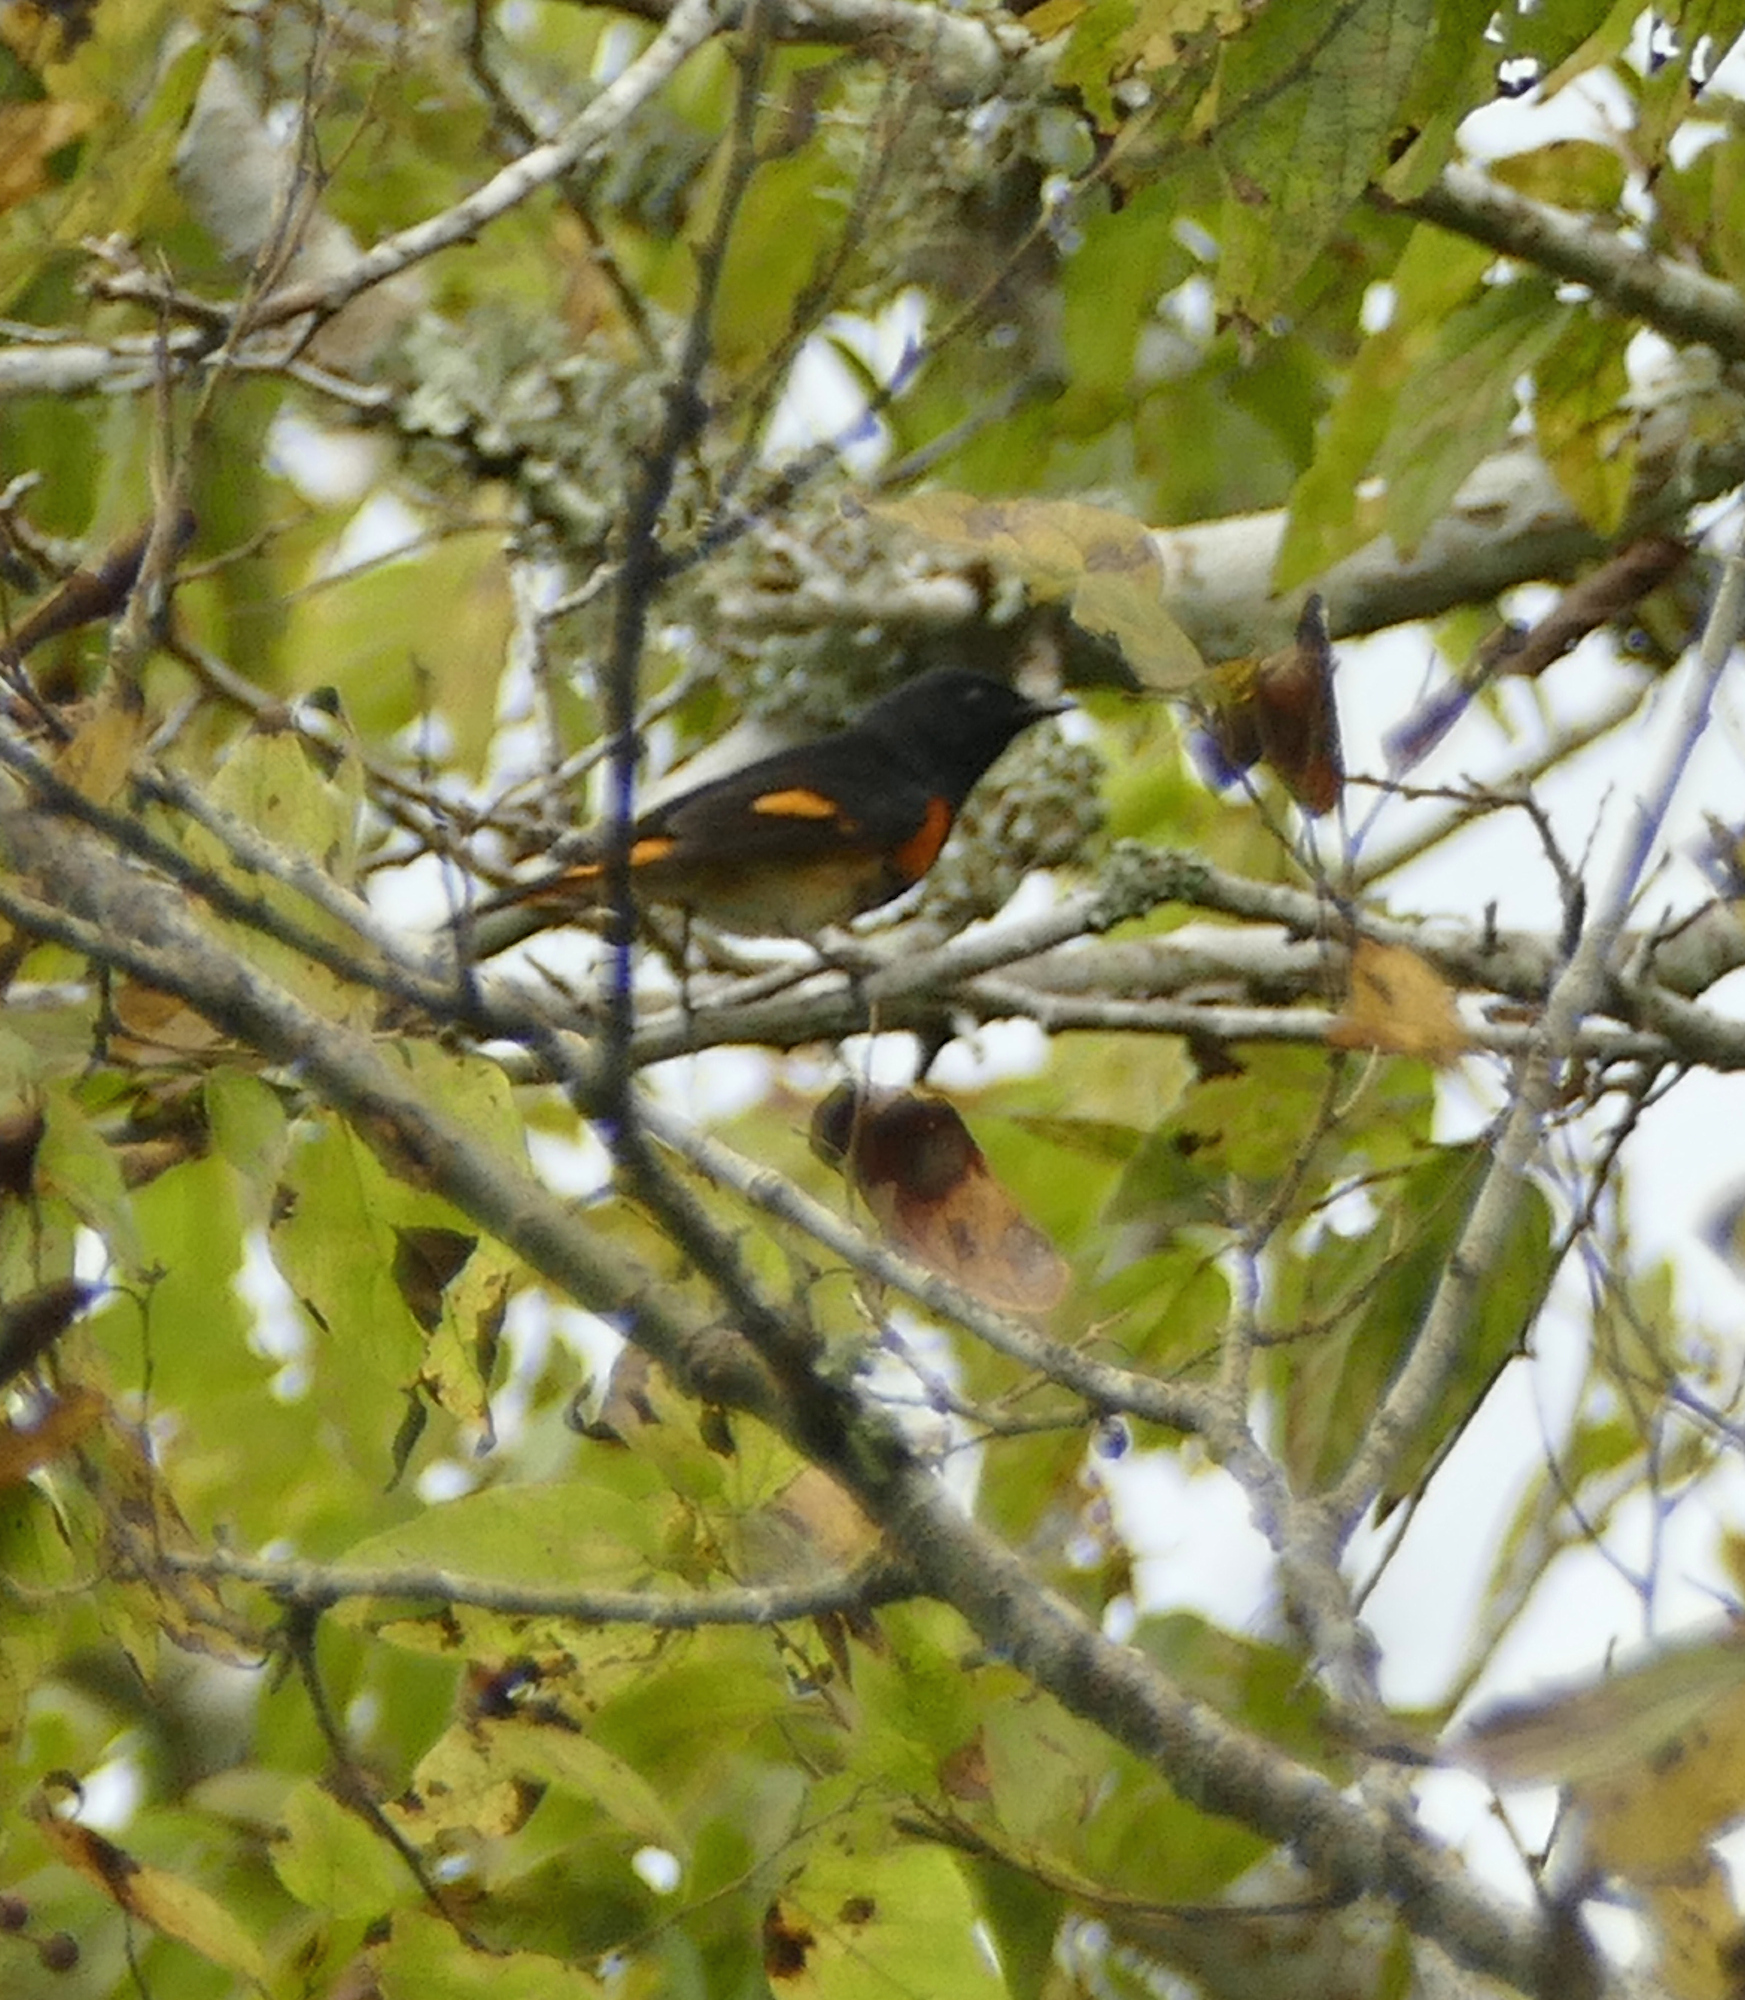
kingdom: Animalia
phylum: Chordata
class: Aves
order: Passeriformes
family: Parulidae
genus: Setophaga
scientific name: Setophaga ruticilla
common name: American redstart
